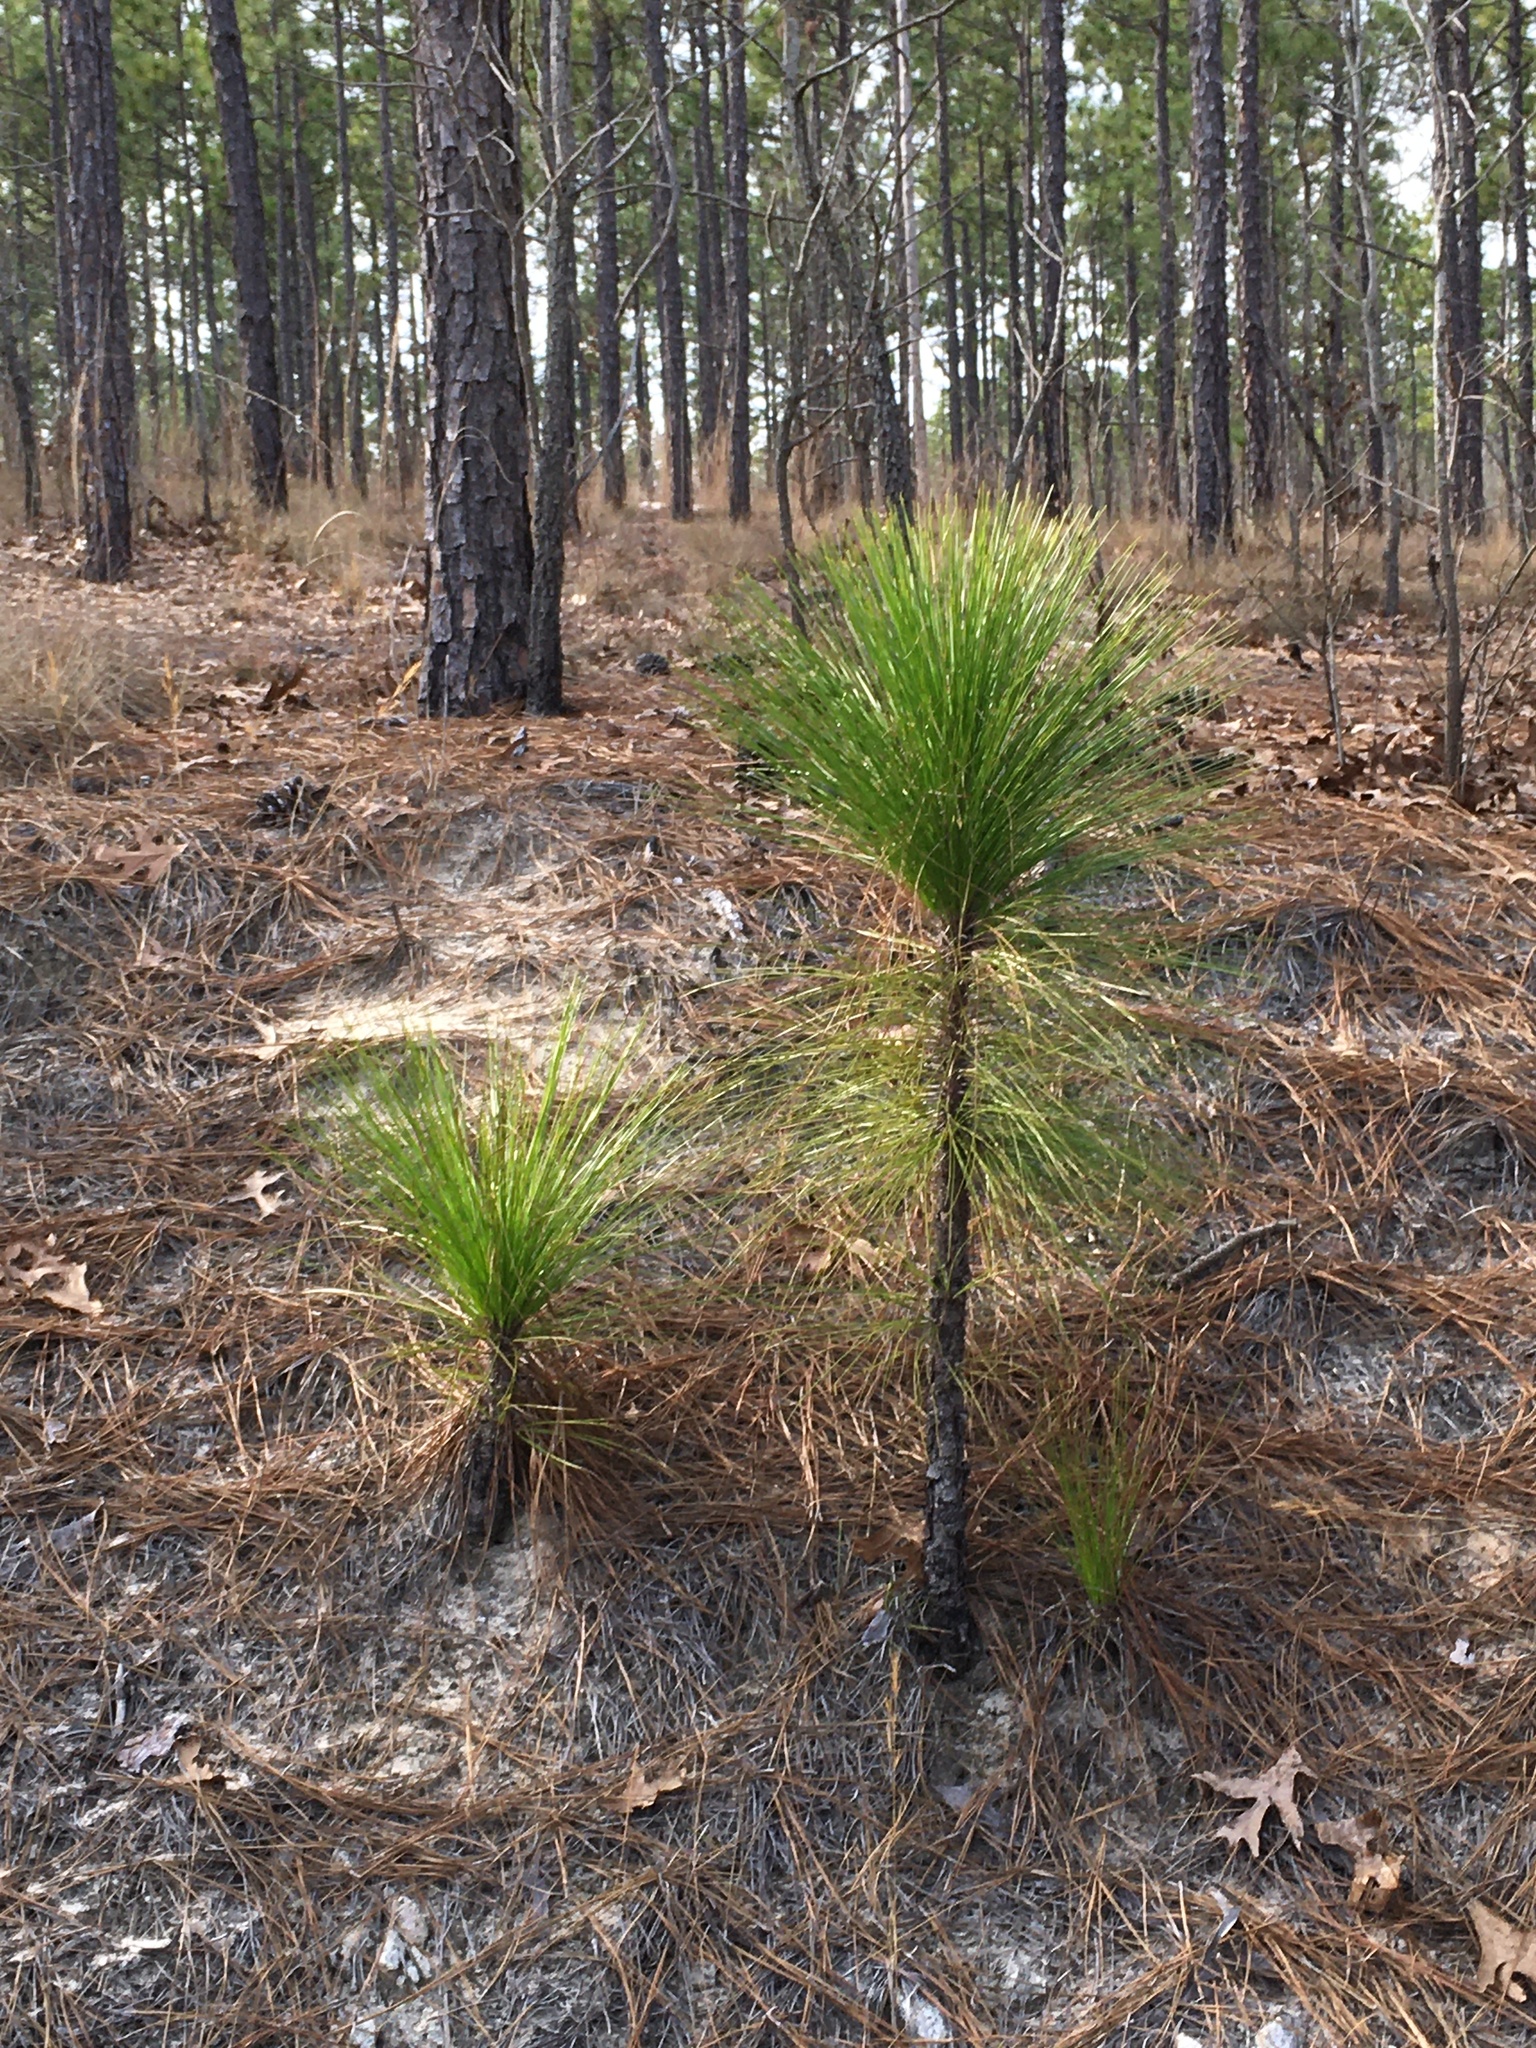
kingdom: Plantae
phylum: Tracheophyta
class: Pinopsida
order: Pinales
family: Pinaceae
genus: Pinus
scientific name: Pinus palustris
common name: Longleaf pine
